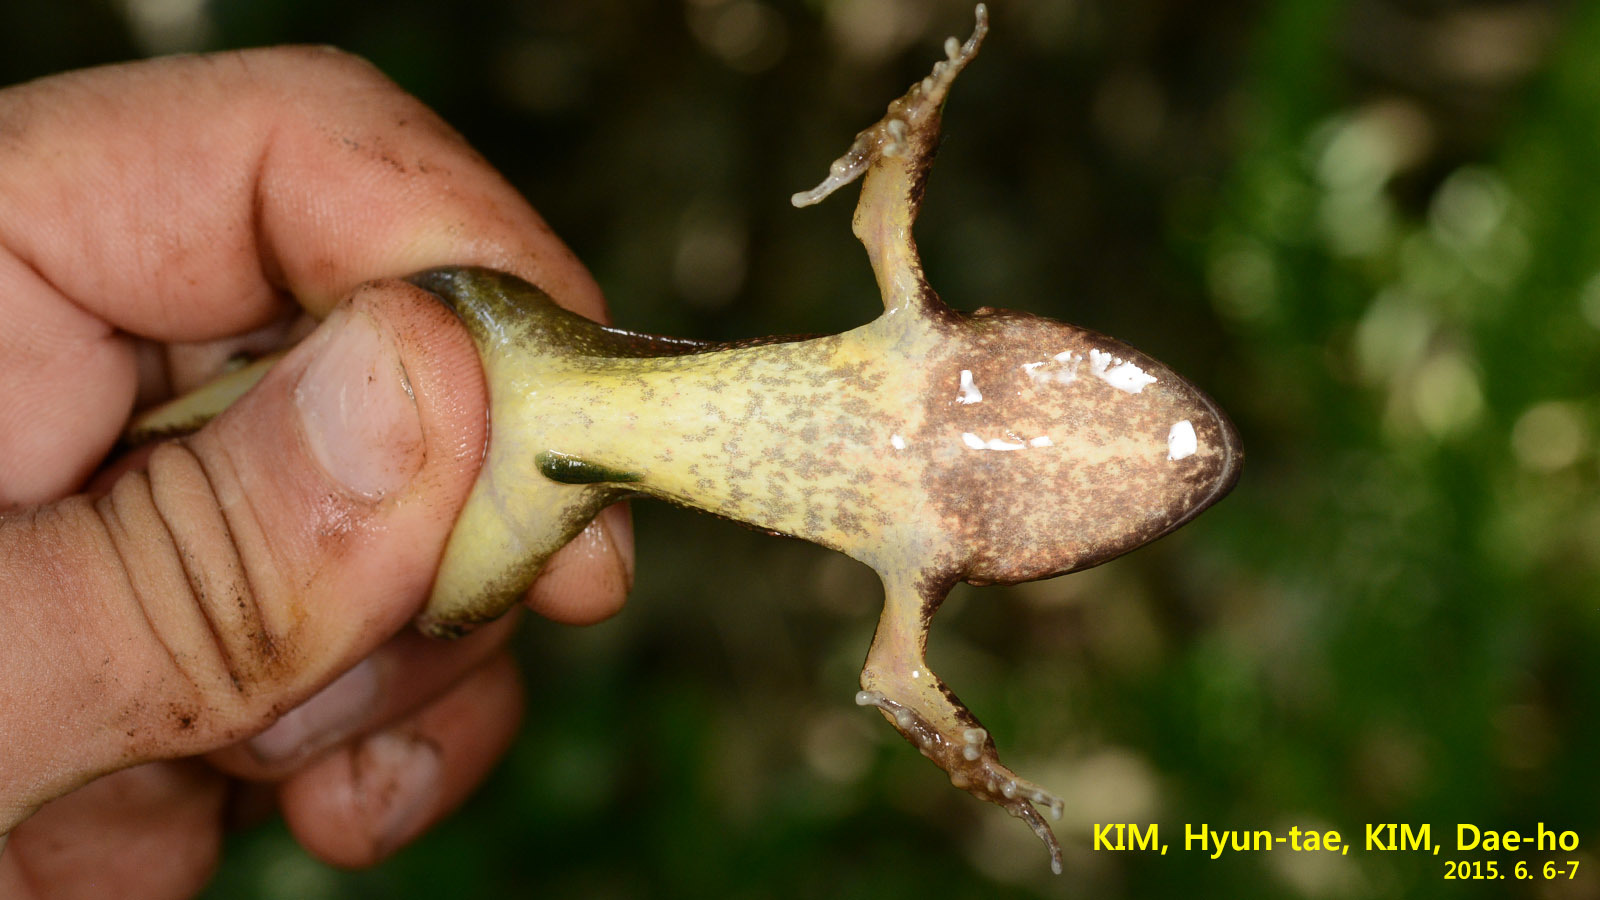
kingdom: Animalia
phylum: Chordata
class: Amphibia
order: Anura
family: Ranidae
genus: Rana
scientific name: Rana uenoi
